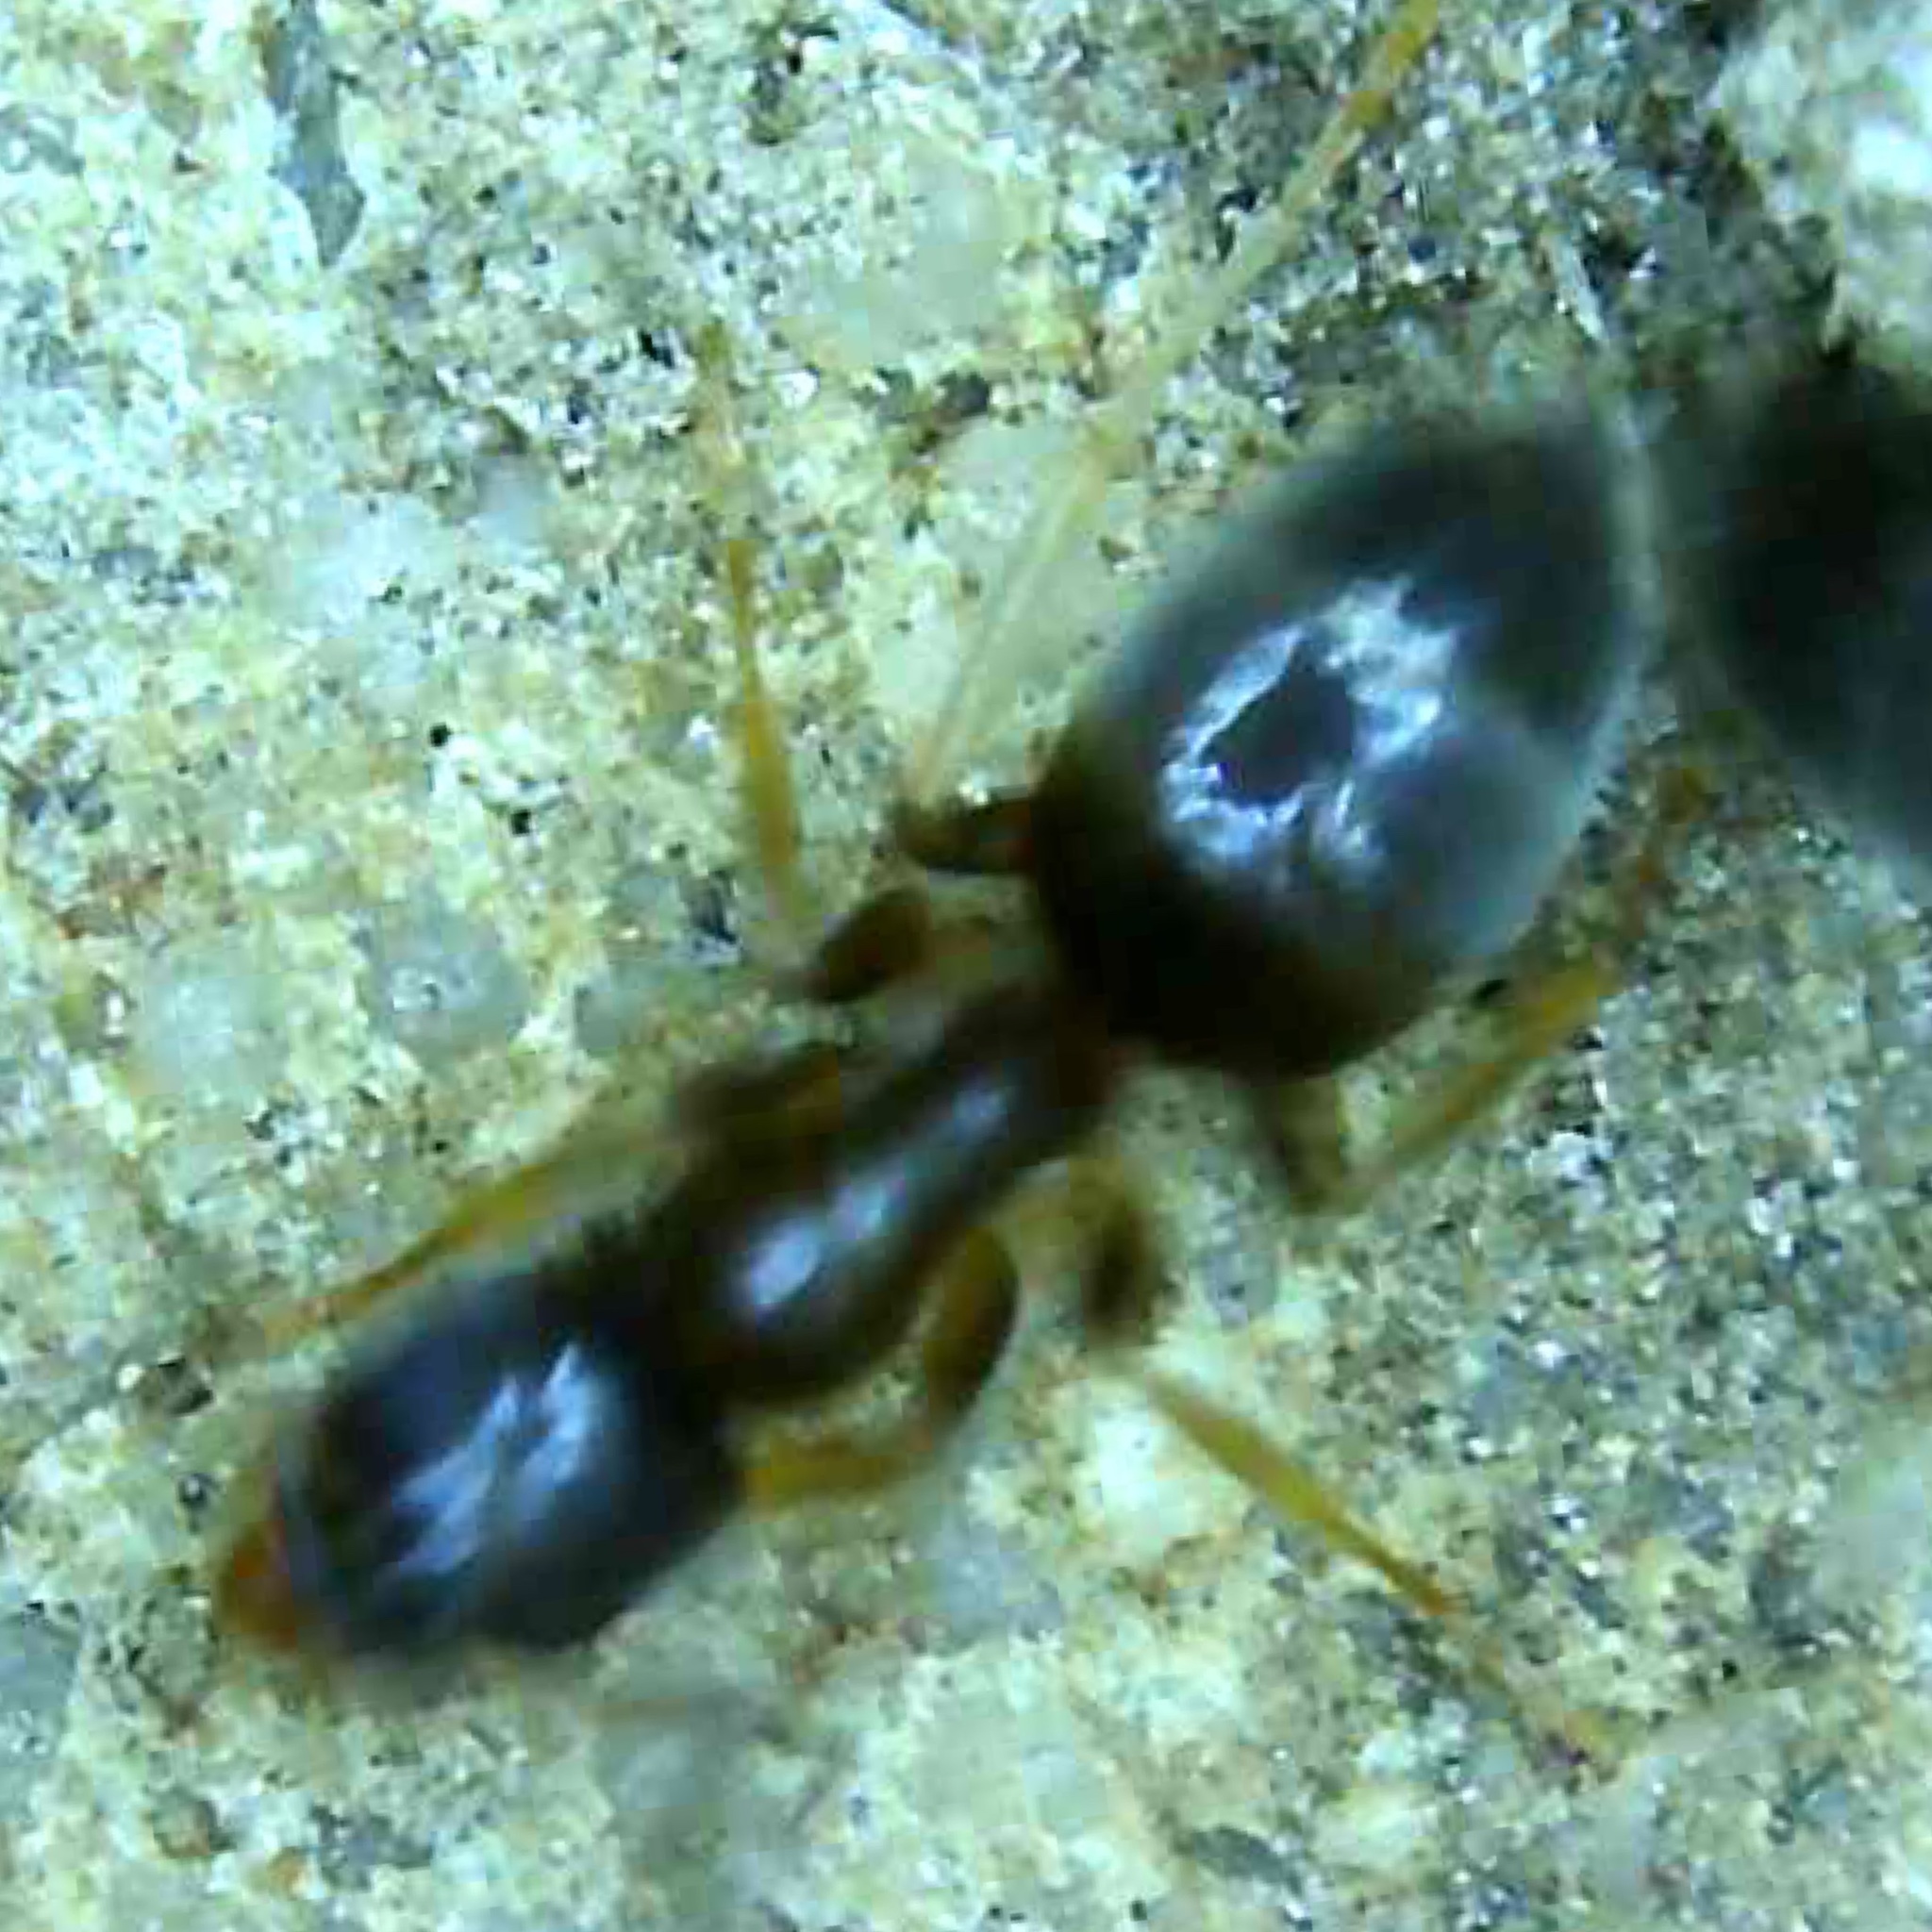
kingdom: Animalia
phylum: Arthropoda
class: Insecta
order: Hymenoptera
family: Formicidae
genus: Tapinoma
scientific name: Tapinoma sessile
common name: Odorous house ant
